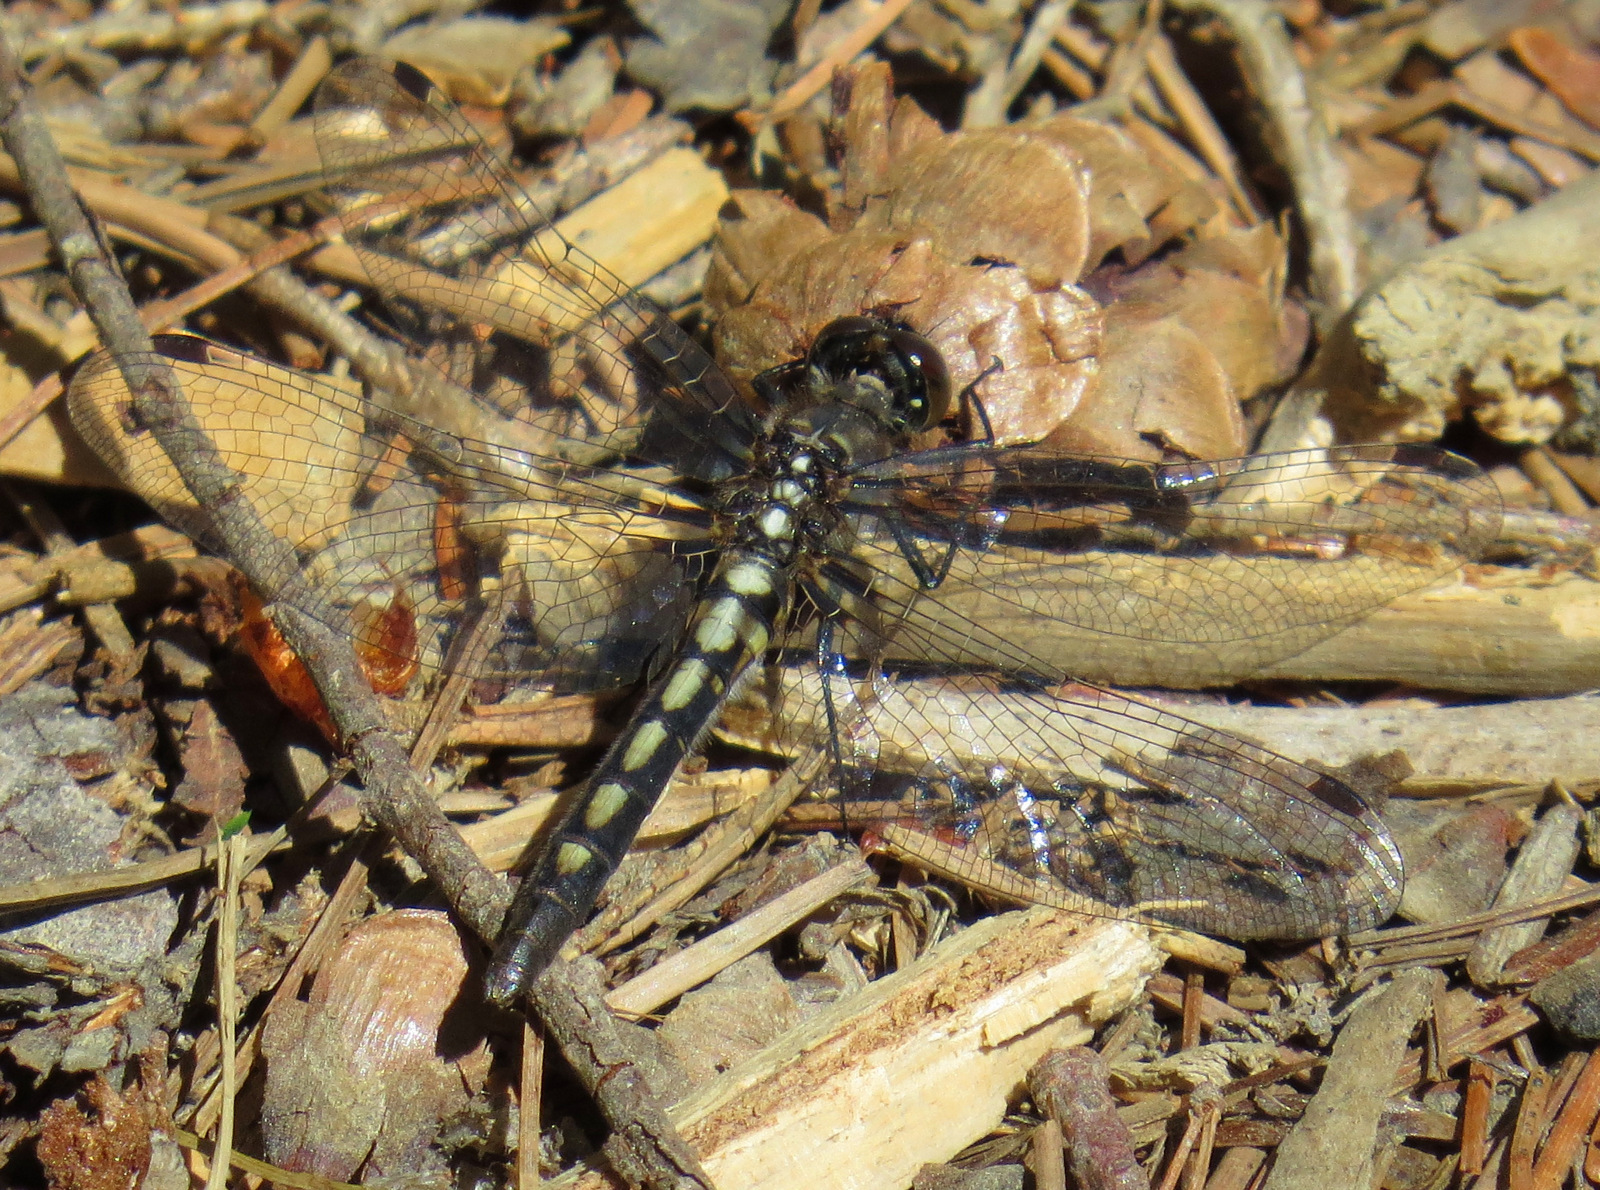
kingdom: Animalia
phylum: Arthropoda
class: Insecta
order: Odonata
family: Libellulidae
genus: Leucorrhinia
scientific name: Leucorrhinia hudsonica
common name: Hudsonian whiteface
